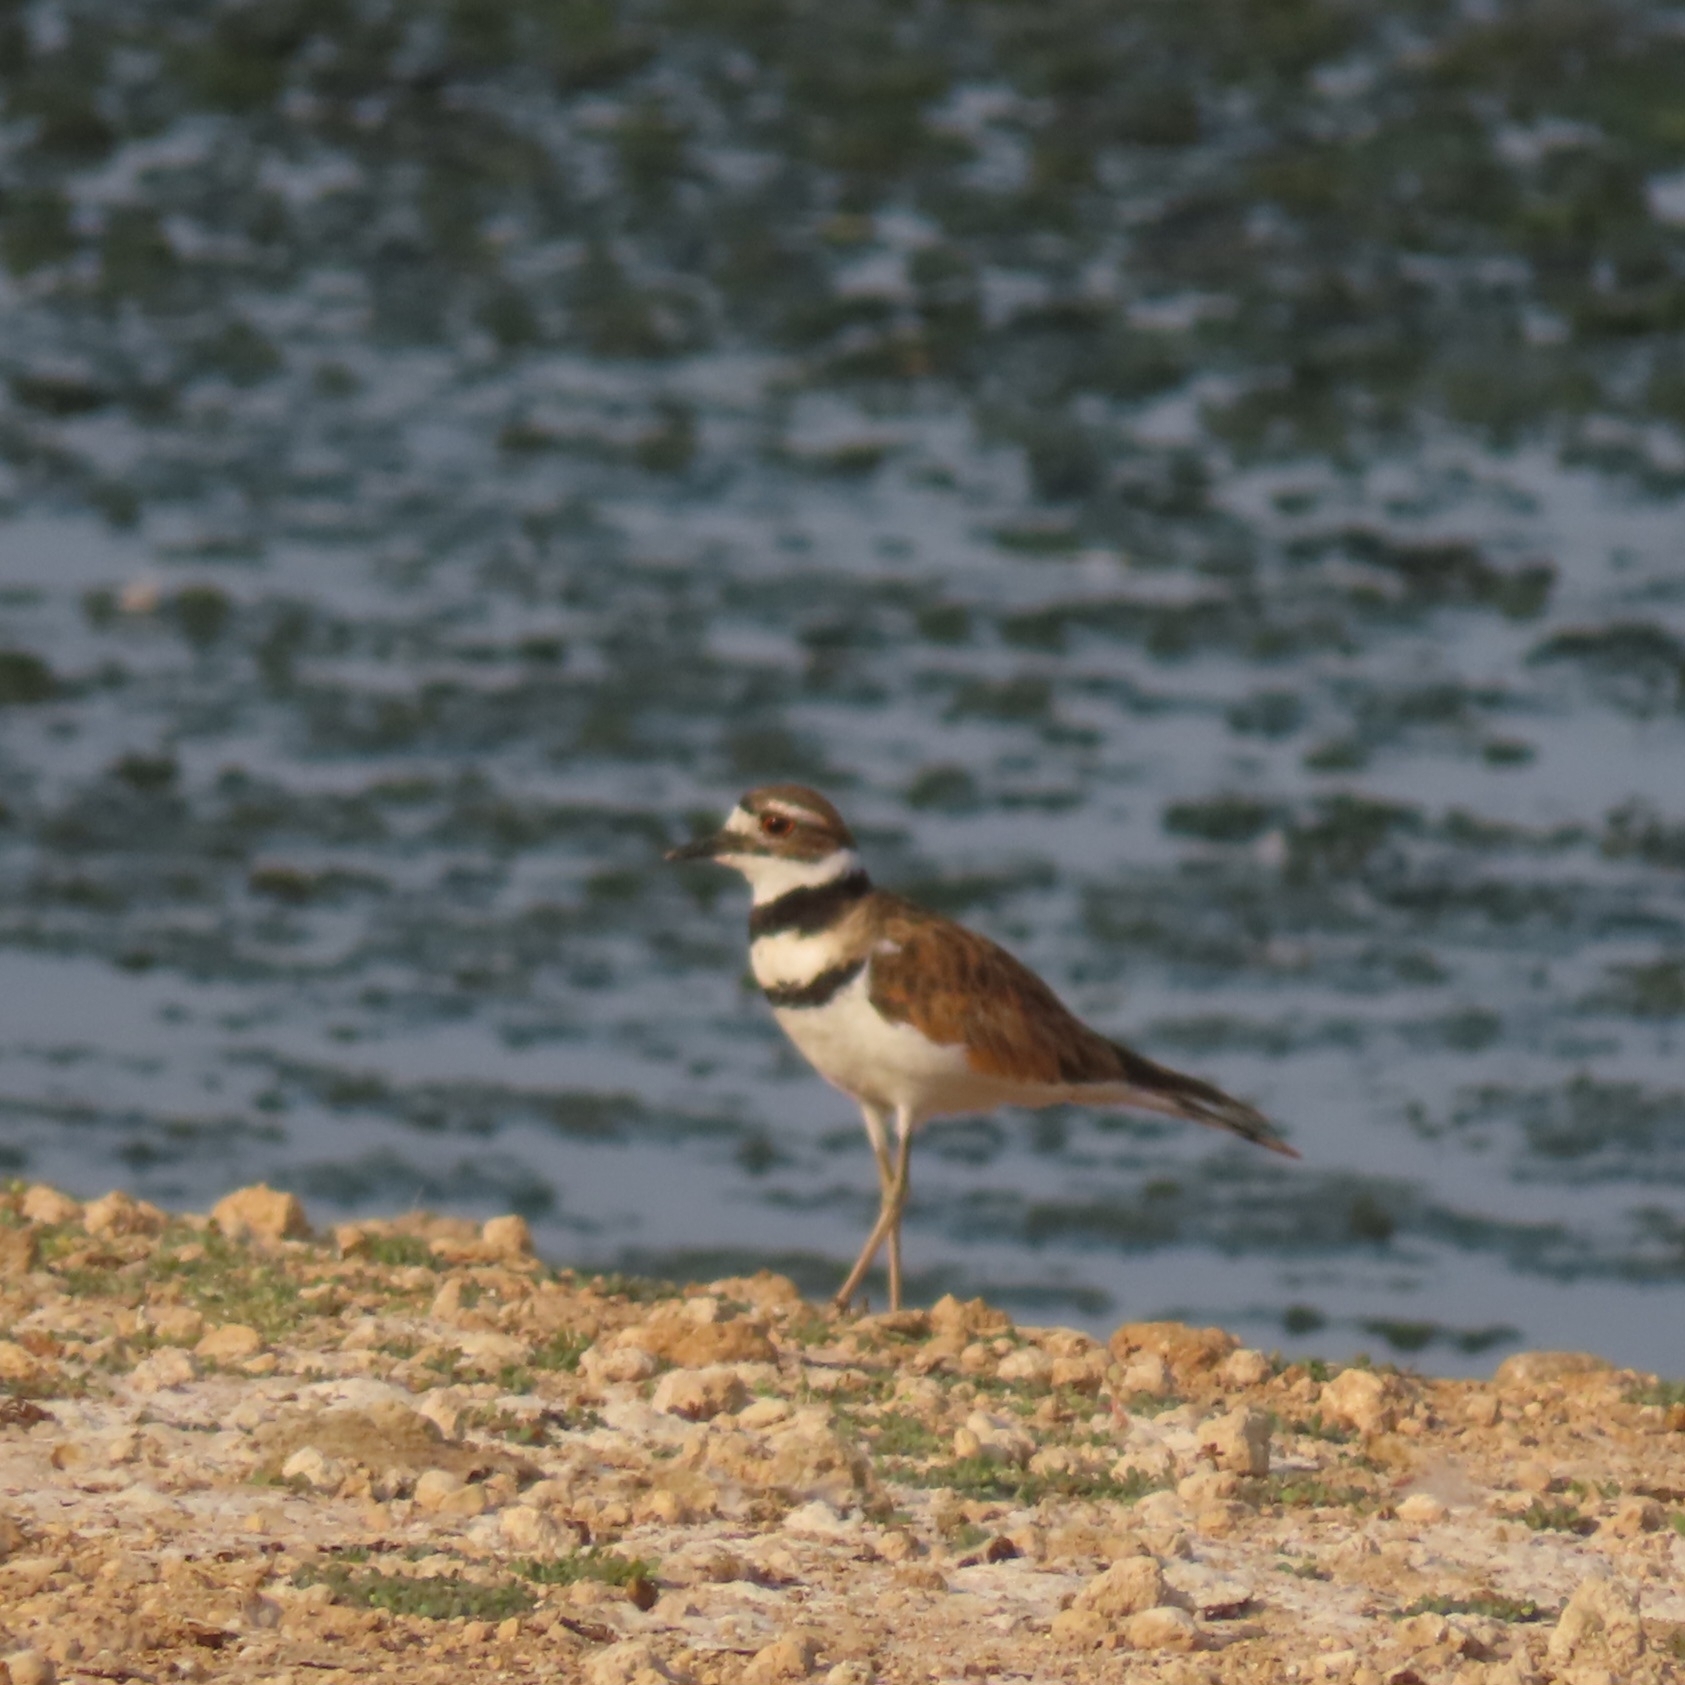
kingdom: Animalia
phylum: Chordata
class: Aves
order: Charadriiformes
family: Charadriidae
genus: Charadrius
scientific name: Charadrius vociferus
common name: Killdeer
